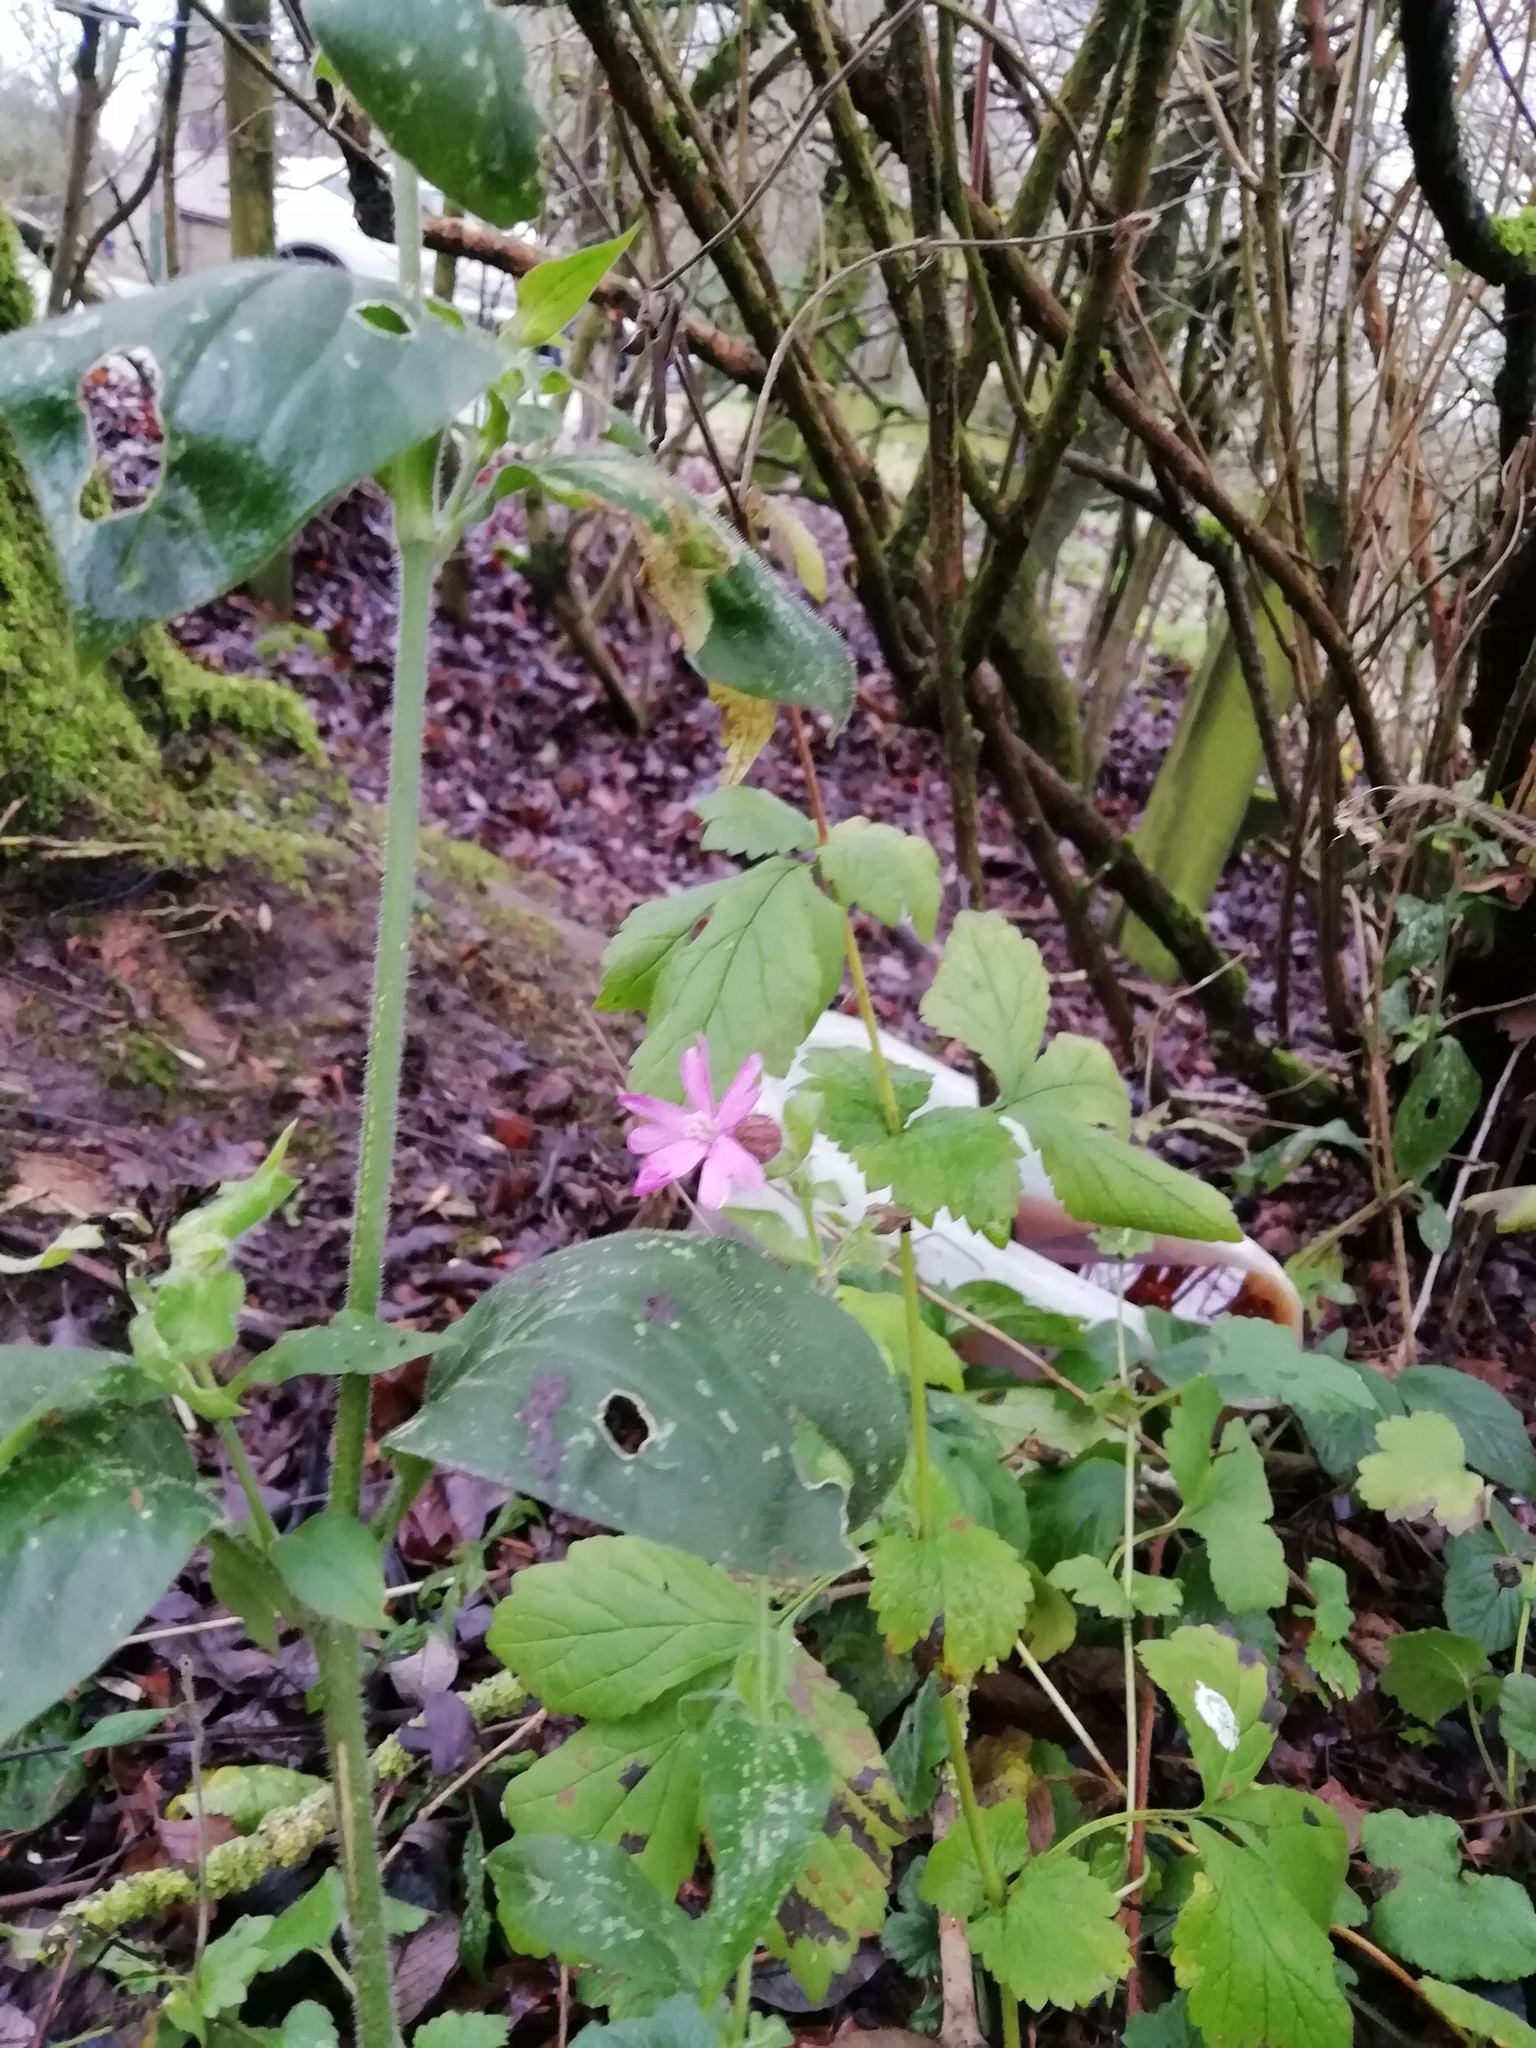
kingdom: Plantae
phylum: Tracheophyta
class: Magnoliopsida
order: Caryophyllales
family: Caryophyllaceae
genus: Silene
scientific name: Silene dioica
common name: Red campion
